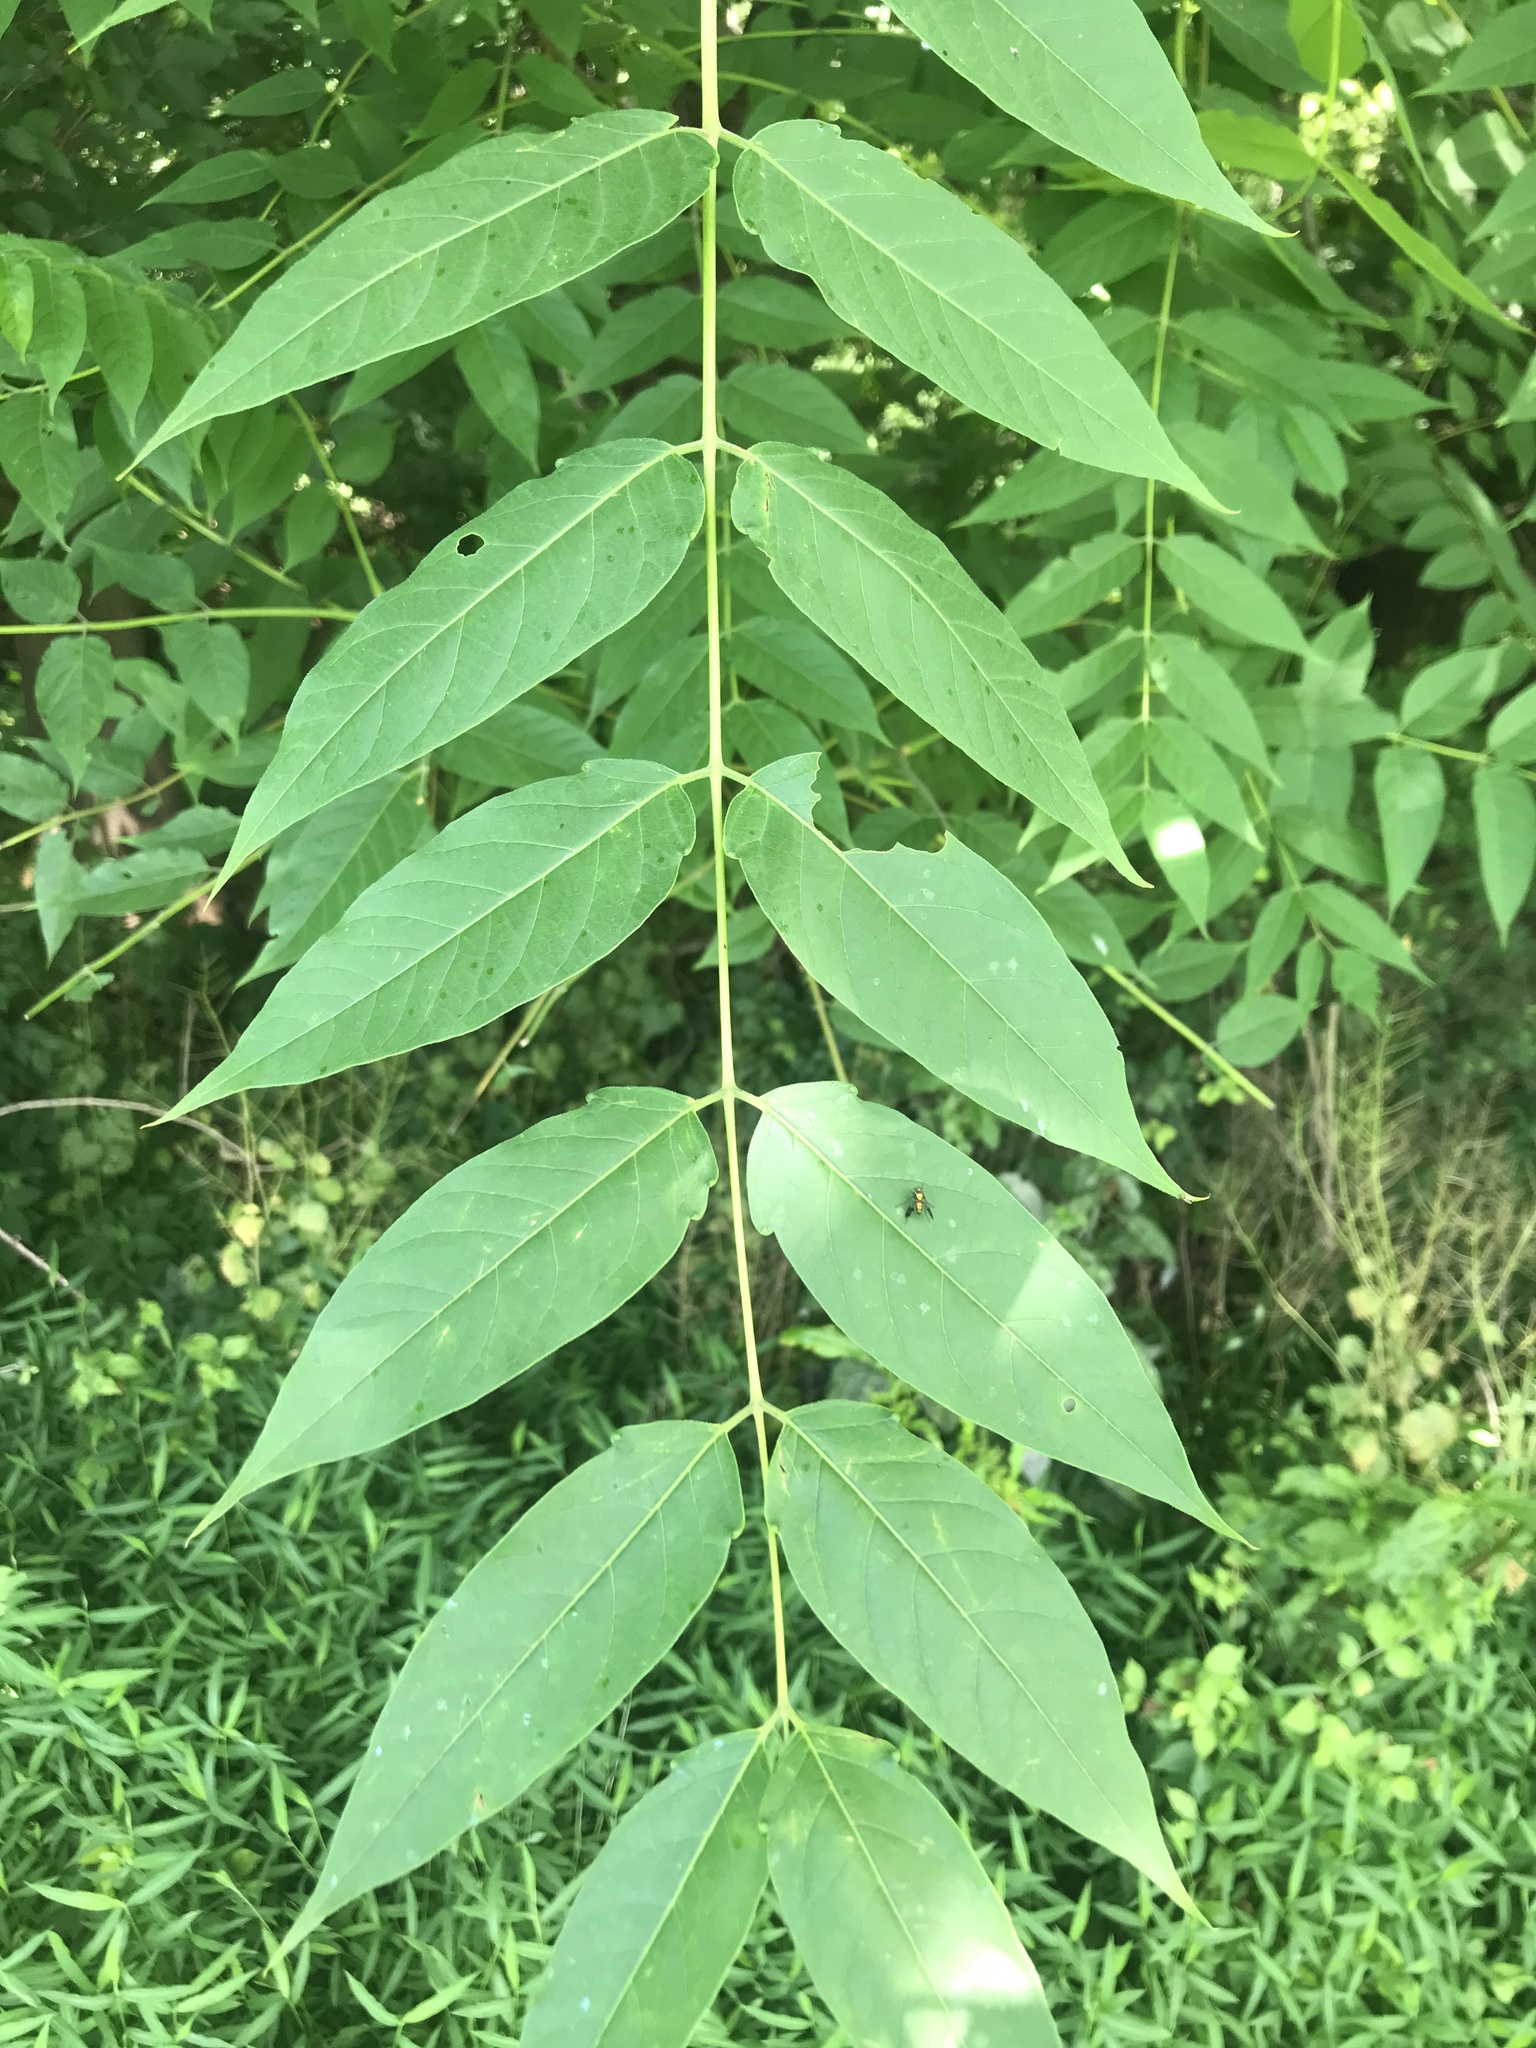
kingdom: Plantae
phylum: Tracheophyta
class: Magnoliopsida
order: Sapindales
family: Simaroubaceae
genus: Ailanthus
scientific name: Ailanthus altissima
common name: Tree-of-heaven
